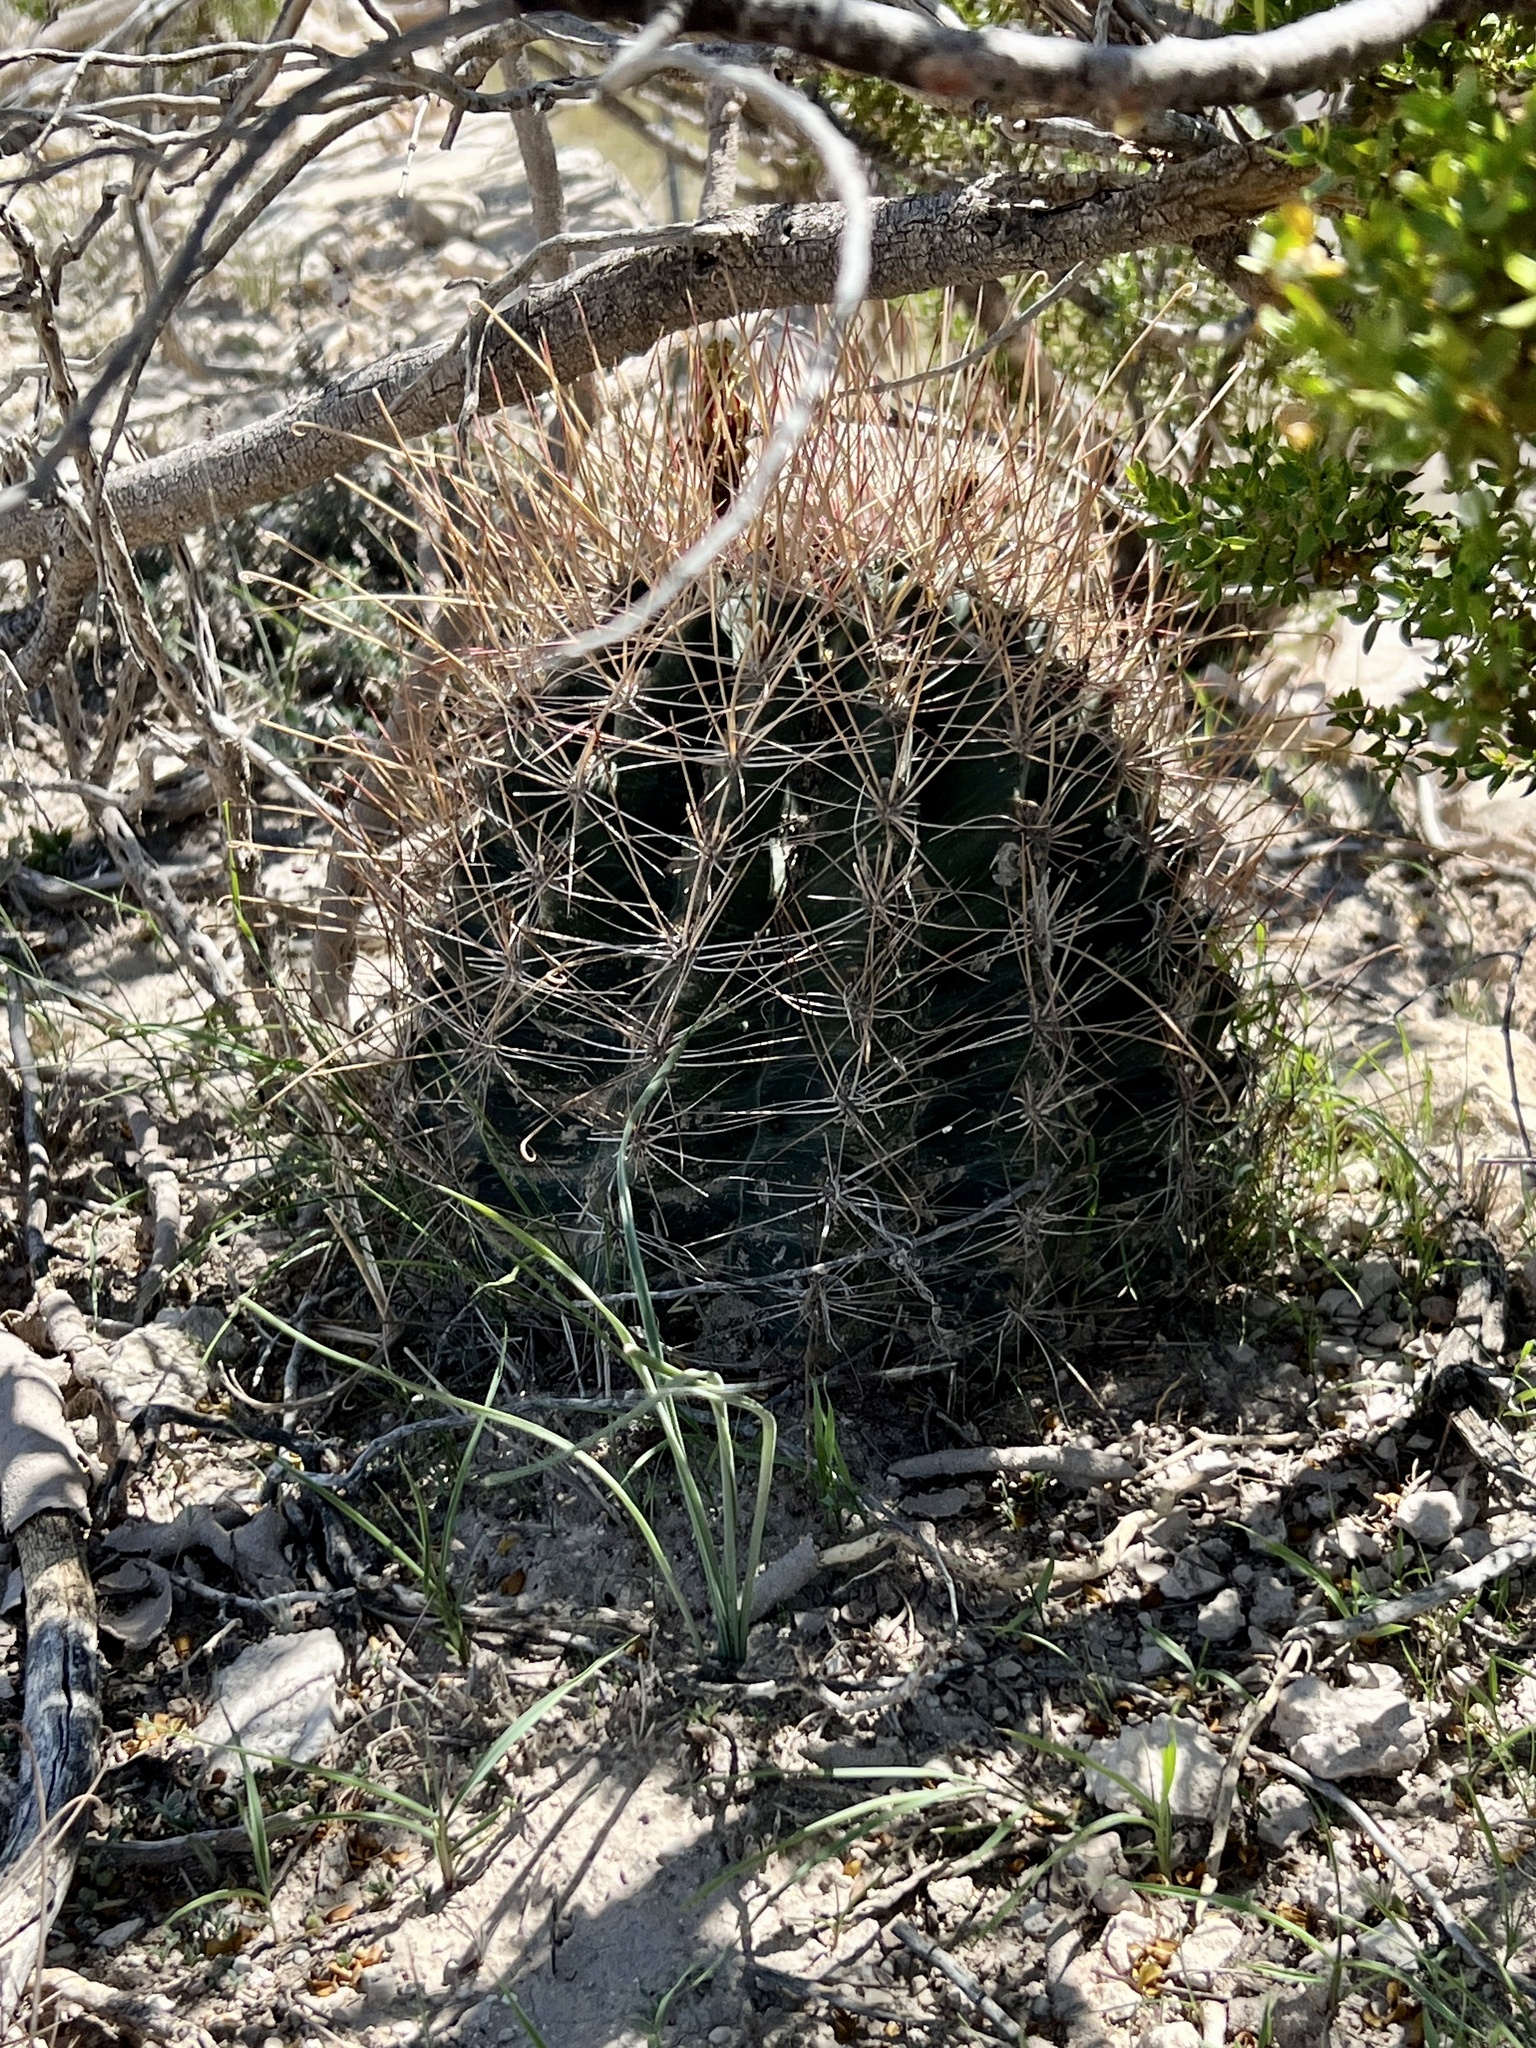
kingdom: Plantae
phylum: Tracheophyta
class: Magnoliopsida
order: Caryophyllales
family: Cactaceae
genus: Bisnaga
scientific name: Bisnaga hamatacantha
